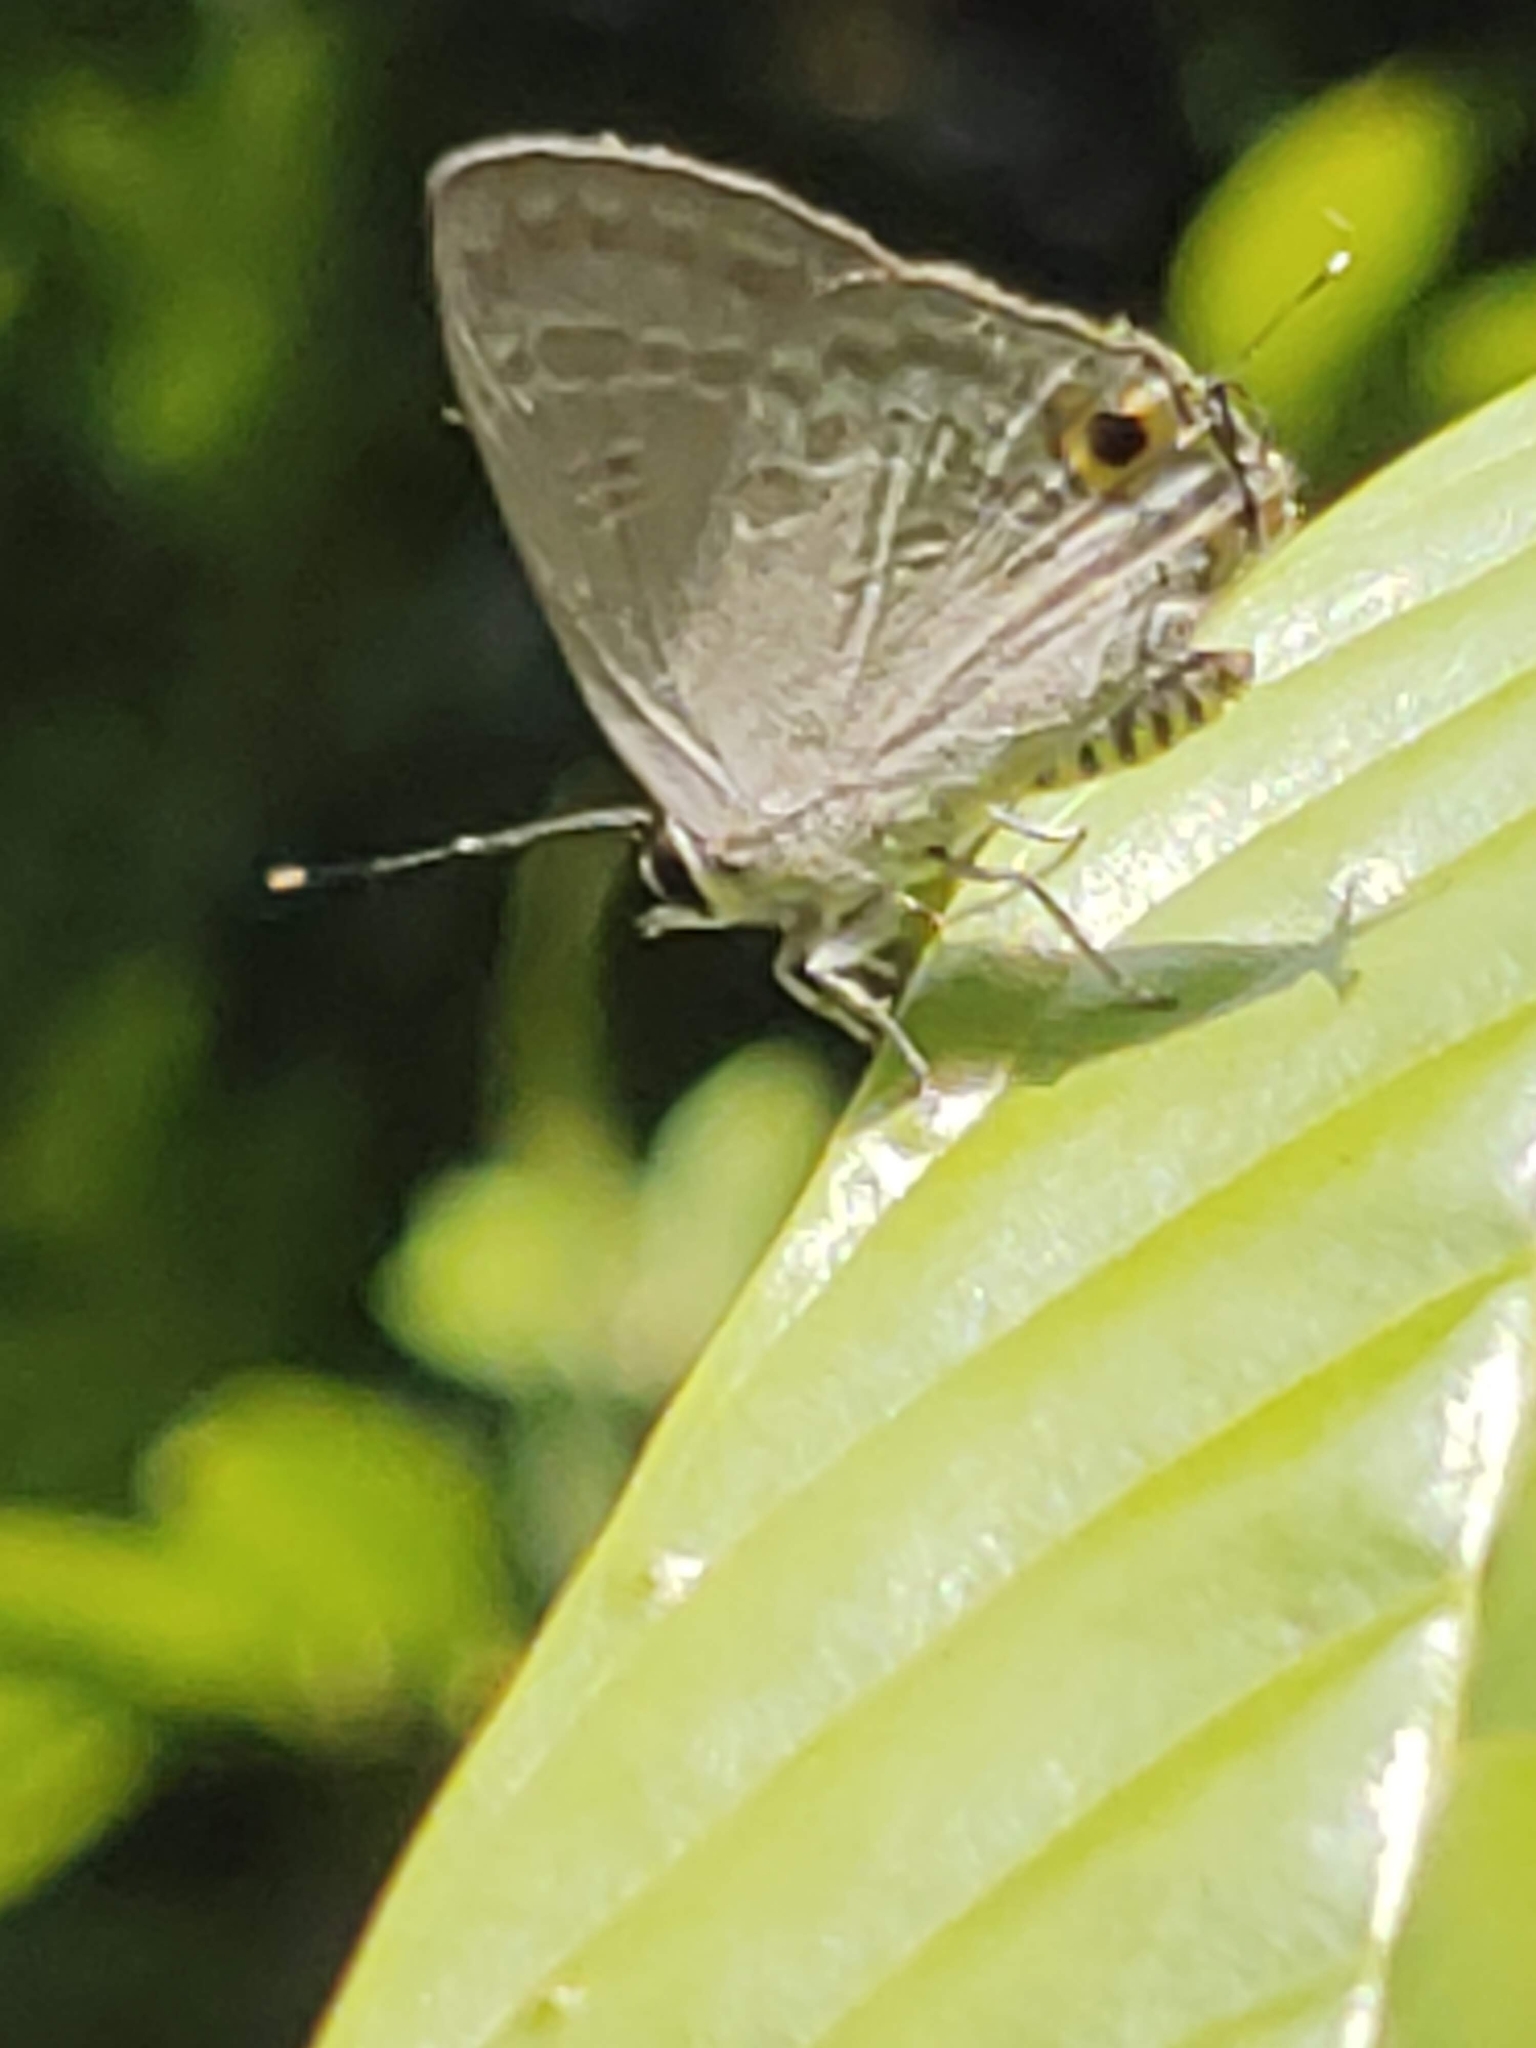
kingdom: Animalia
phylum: Arthropoda
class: Insecta
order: Lepidoptera
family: Lycaenidae
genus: Deudorix
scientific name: Deudorix elioti
